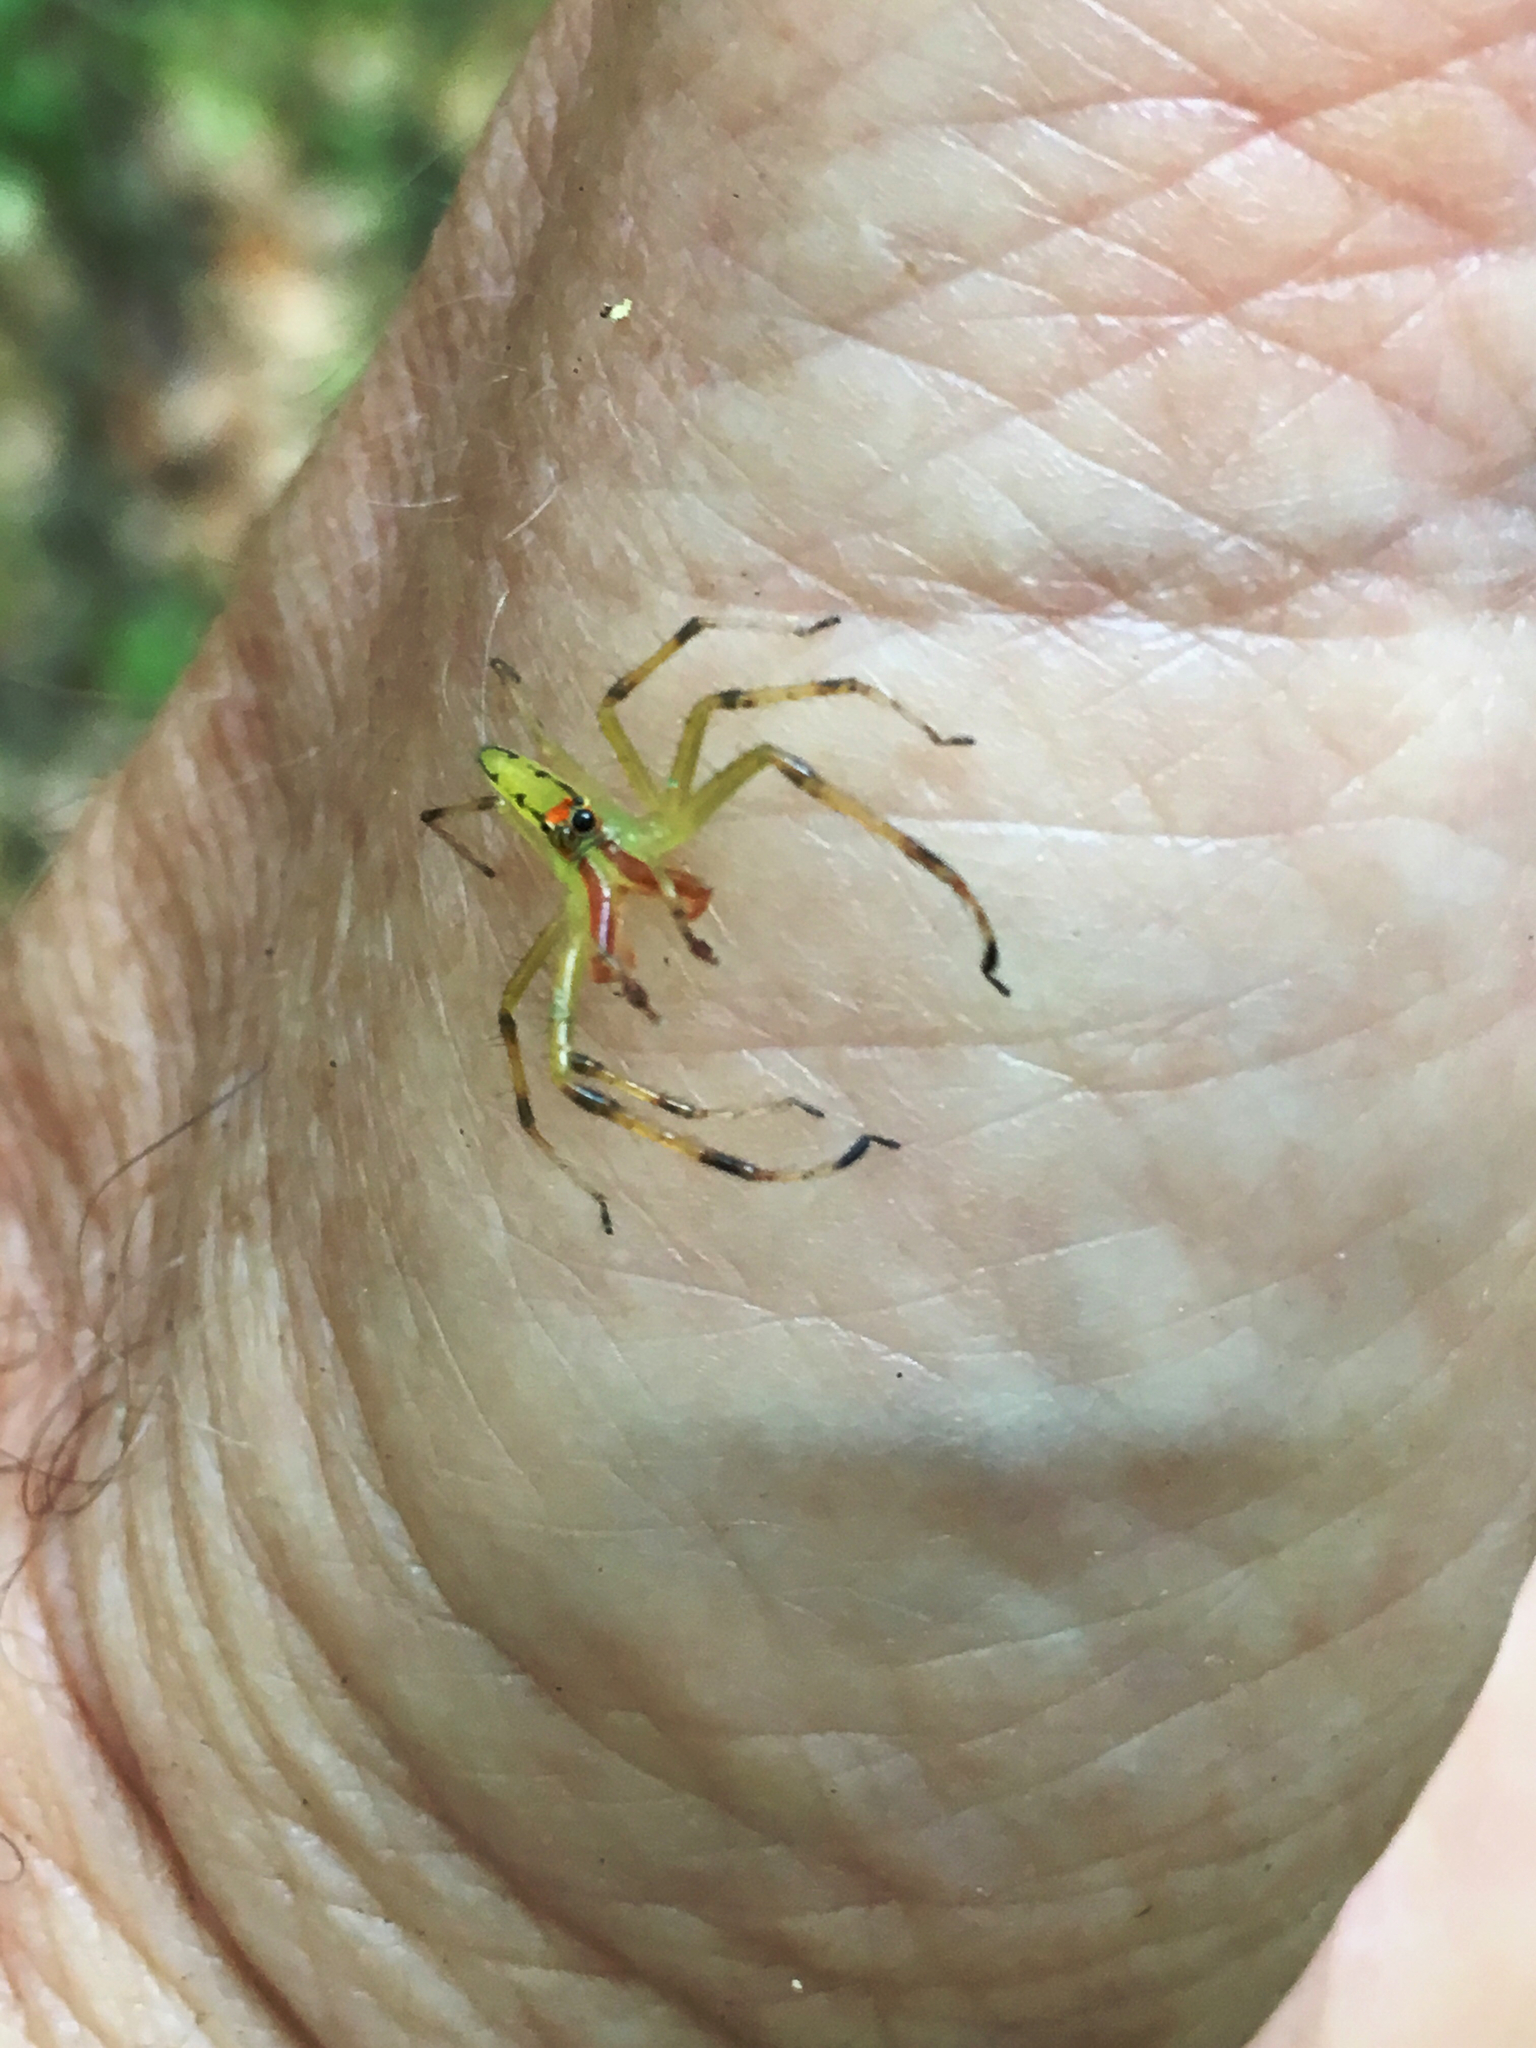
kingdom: Animalia
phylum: Arthropoda
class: Arachnida
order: Araneae
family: Salticidae
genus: Lyssomanes
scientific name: Lyssomanes viridis
